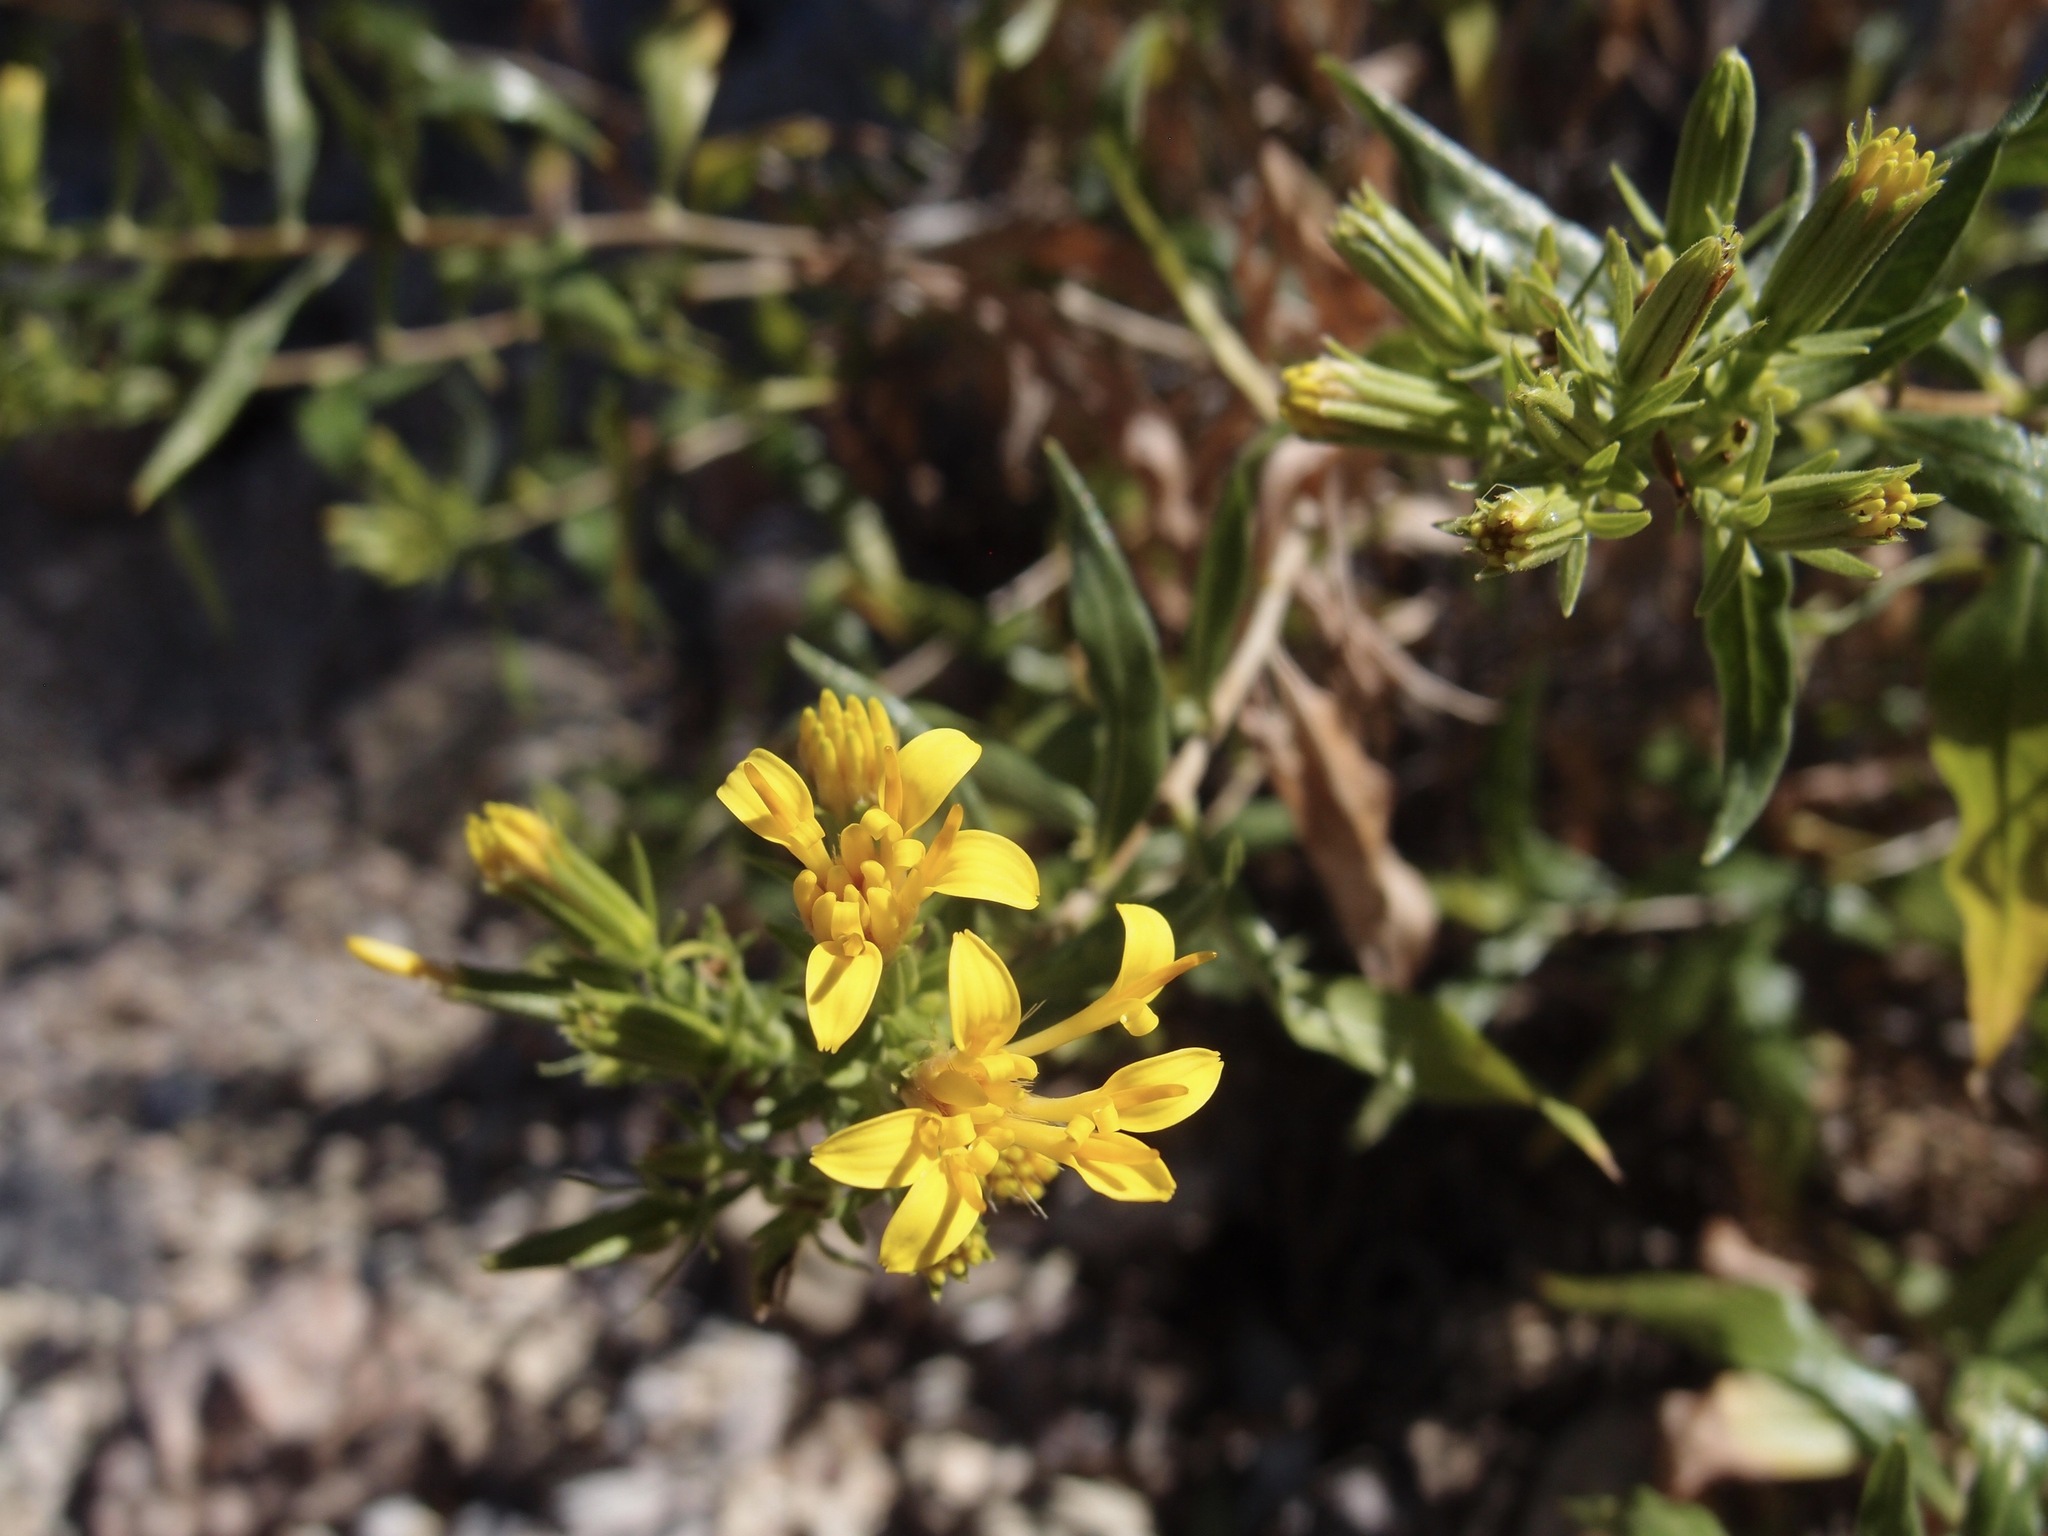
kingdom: Plantae
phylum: Tracheophyta
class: Magnoliopsida
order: Asterales
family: Asteraceae
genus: Trixis
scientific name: Trixis californica
